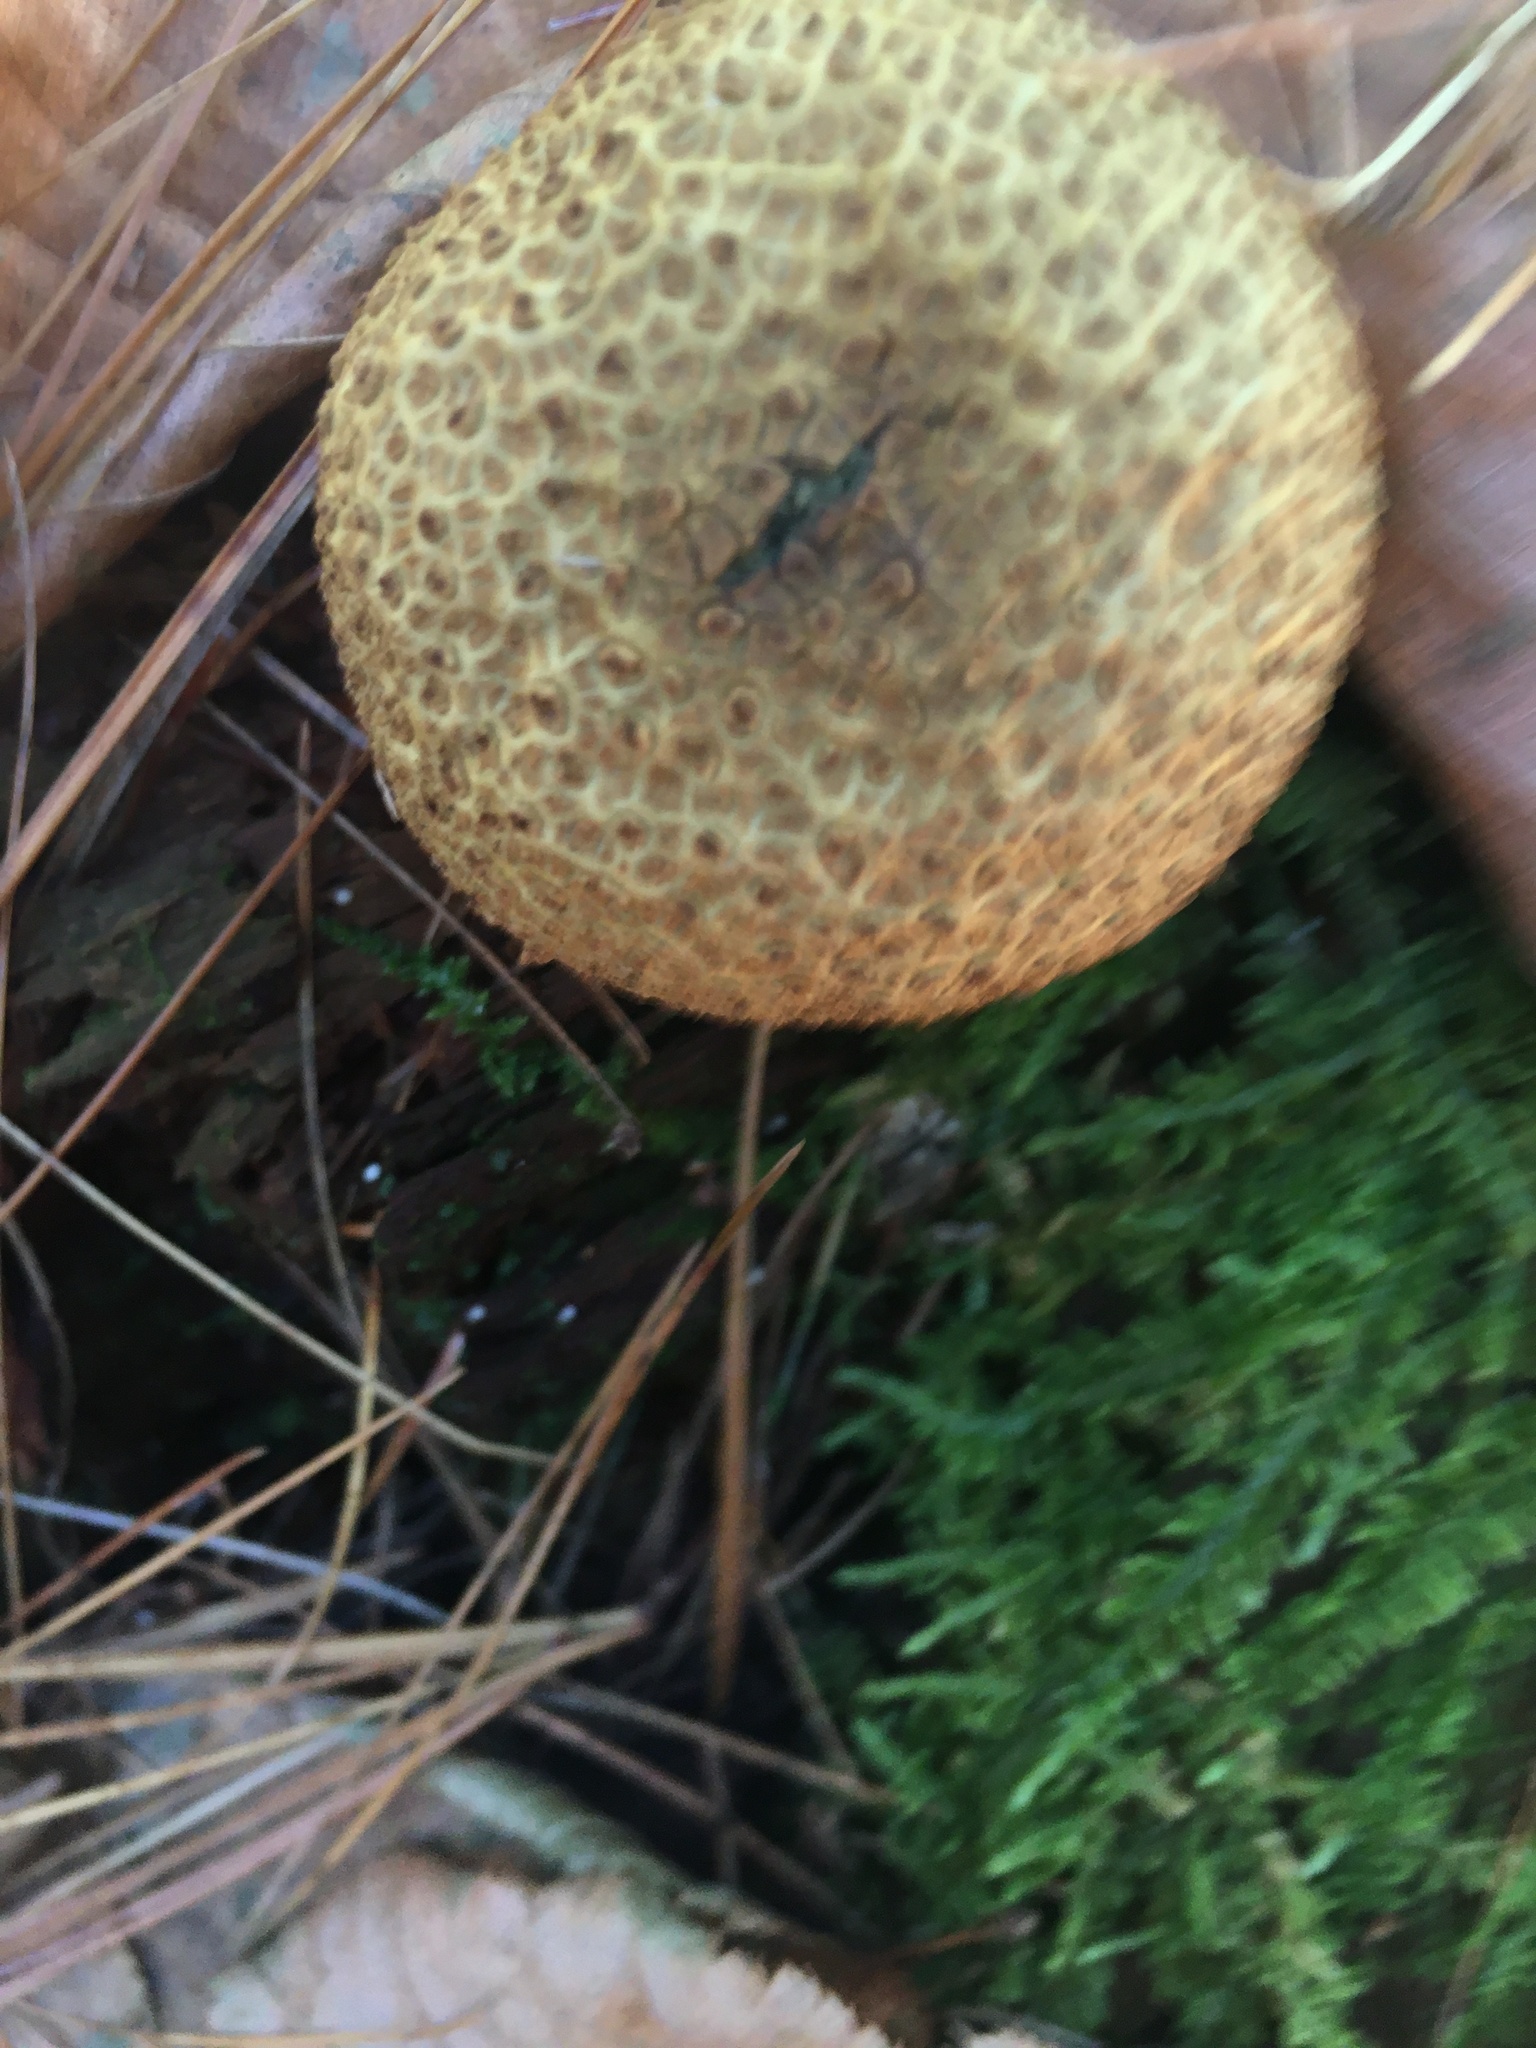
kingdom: Fungi
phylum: Basidiomycota
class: Agaricomycetes
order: Boletales
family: Sclerodermataceae
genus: Scleroderma
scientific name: Scleroderma citrinum
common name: Common earthball
